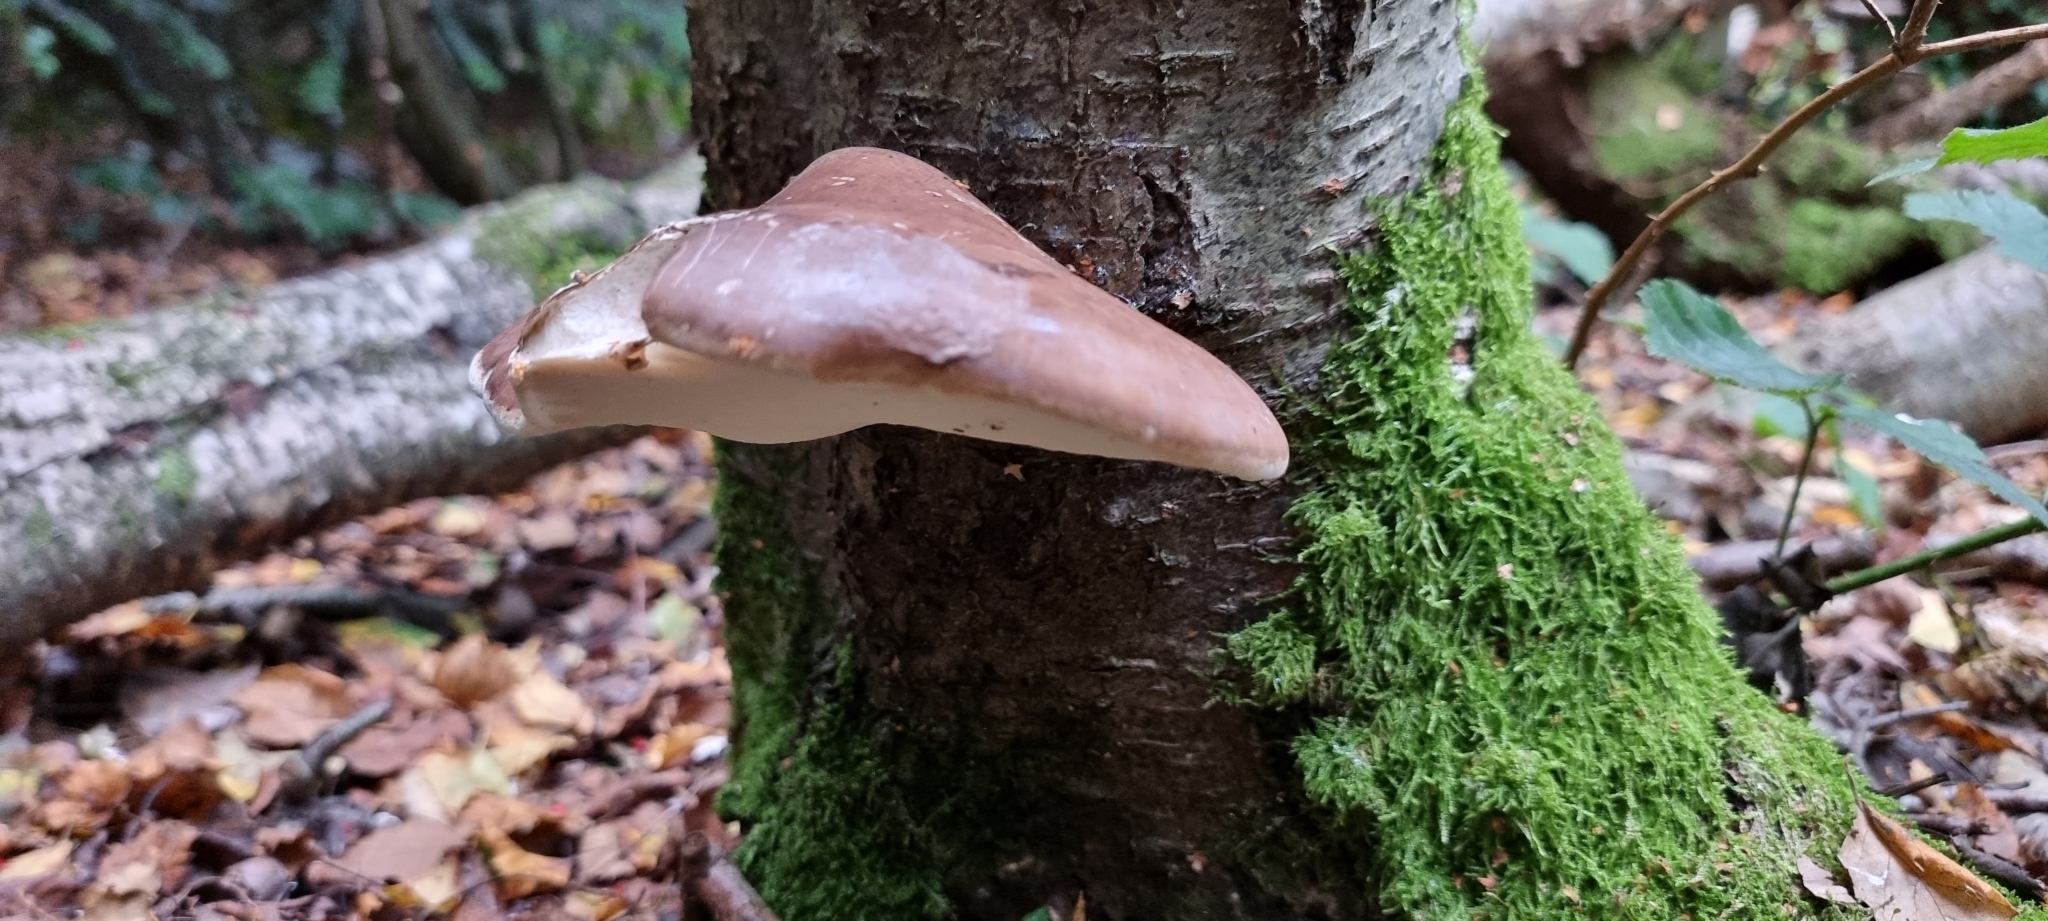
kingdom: Fungi
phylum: Basidiomycota
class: Agaricomycetes
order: Polyporales
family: Fomitopsidaceae
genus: Fomitopsis
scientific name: Fomitopsis betulina
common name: Birch polypore
